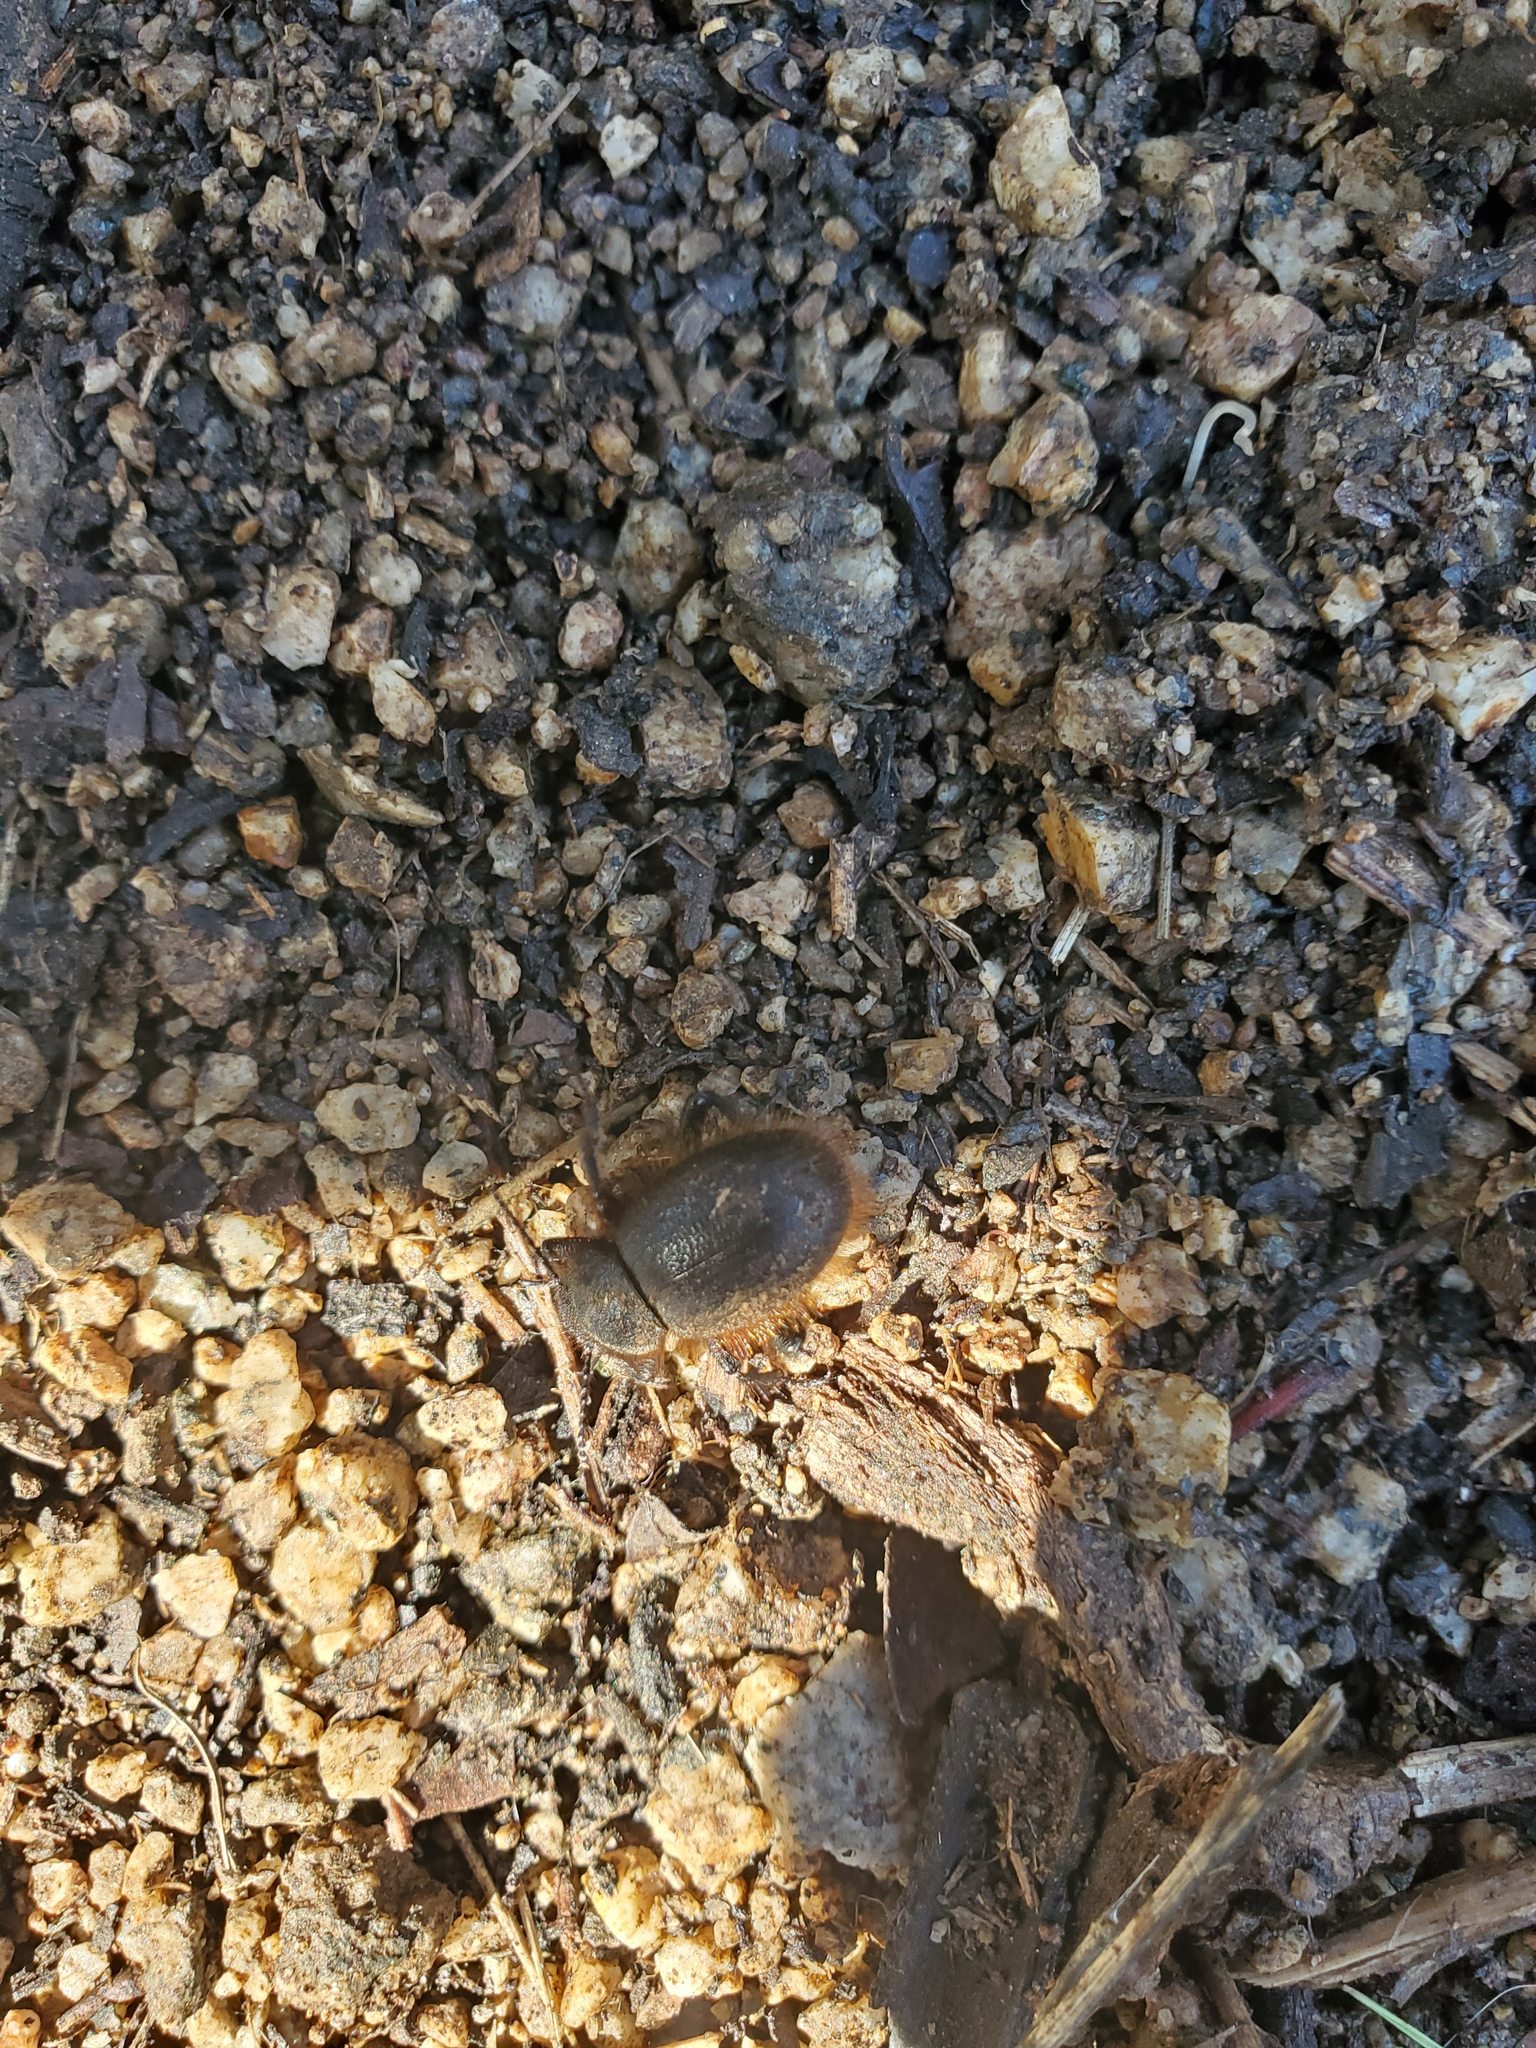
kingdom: Animalia
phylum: Arthropoda
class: Insecta
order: Coleoptera
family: Tenebrionidae
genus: Eleodes
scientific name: Eleodes osculans
